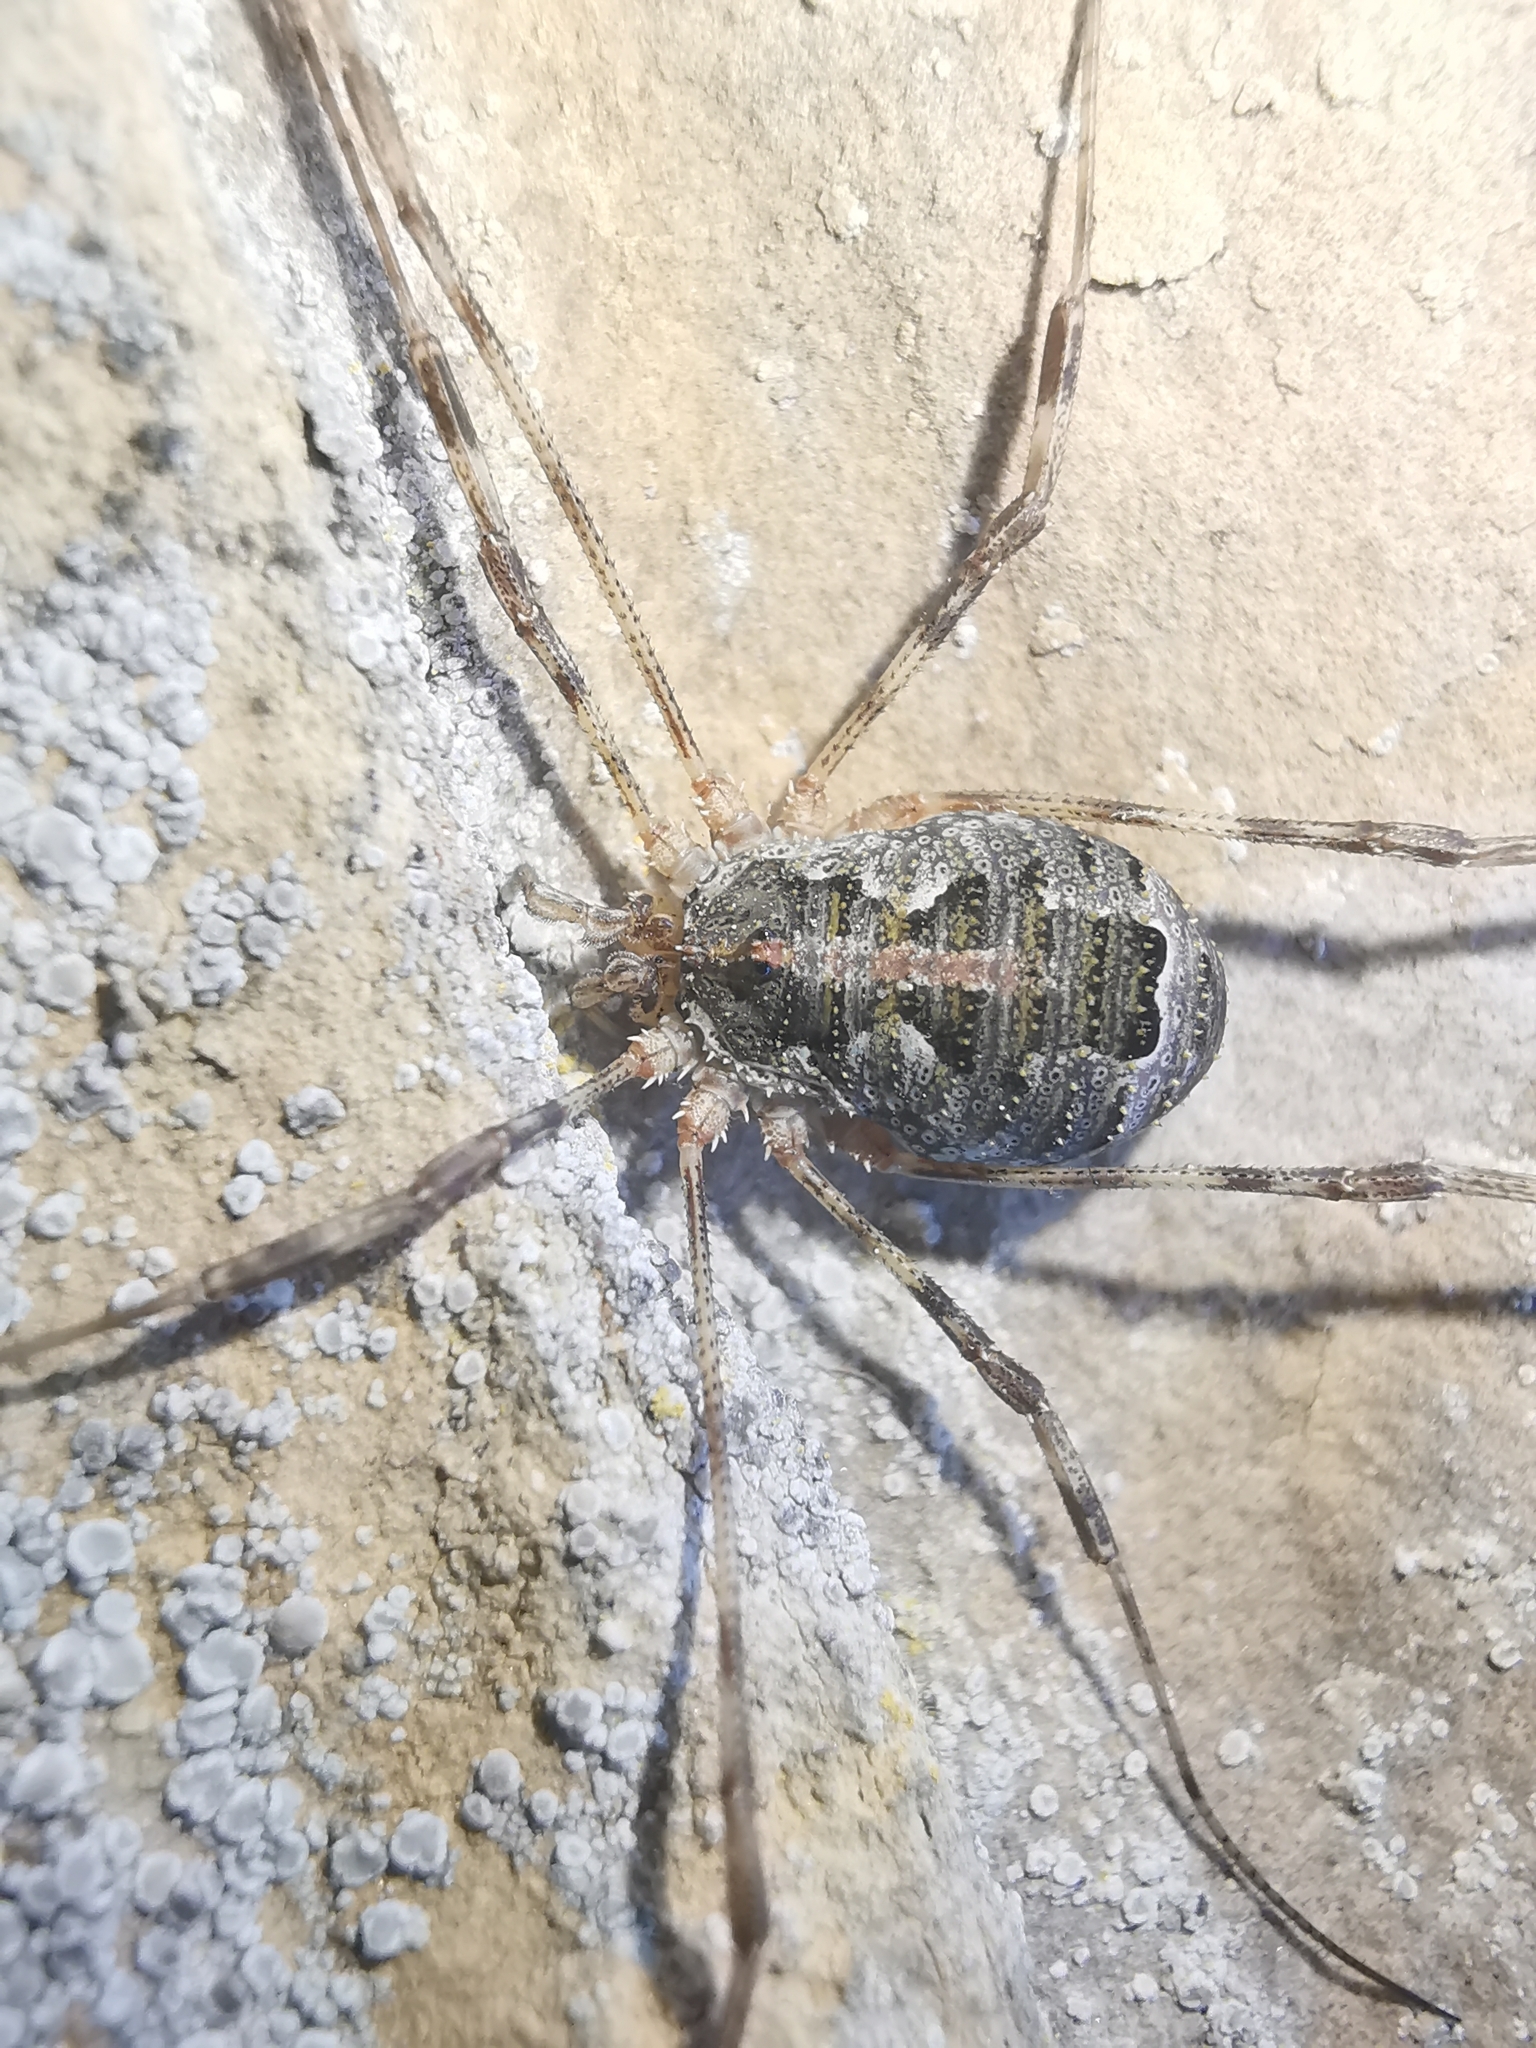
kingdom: Animalia
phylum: Arthropoda
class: Arachnida
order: Opiliones
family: Phalangiidae
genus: Lacinius
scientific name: Lacinius dentiger
